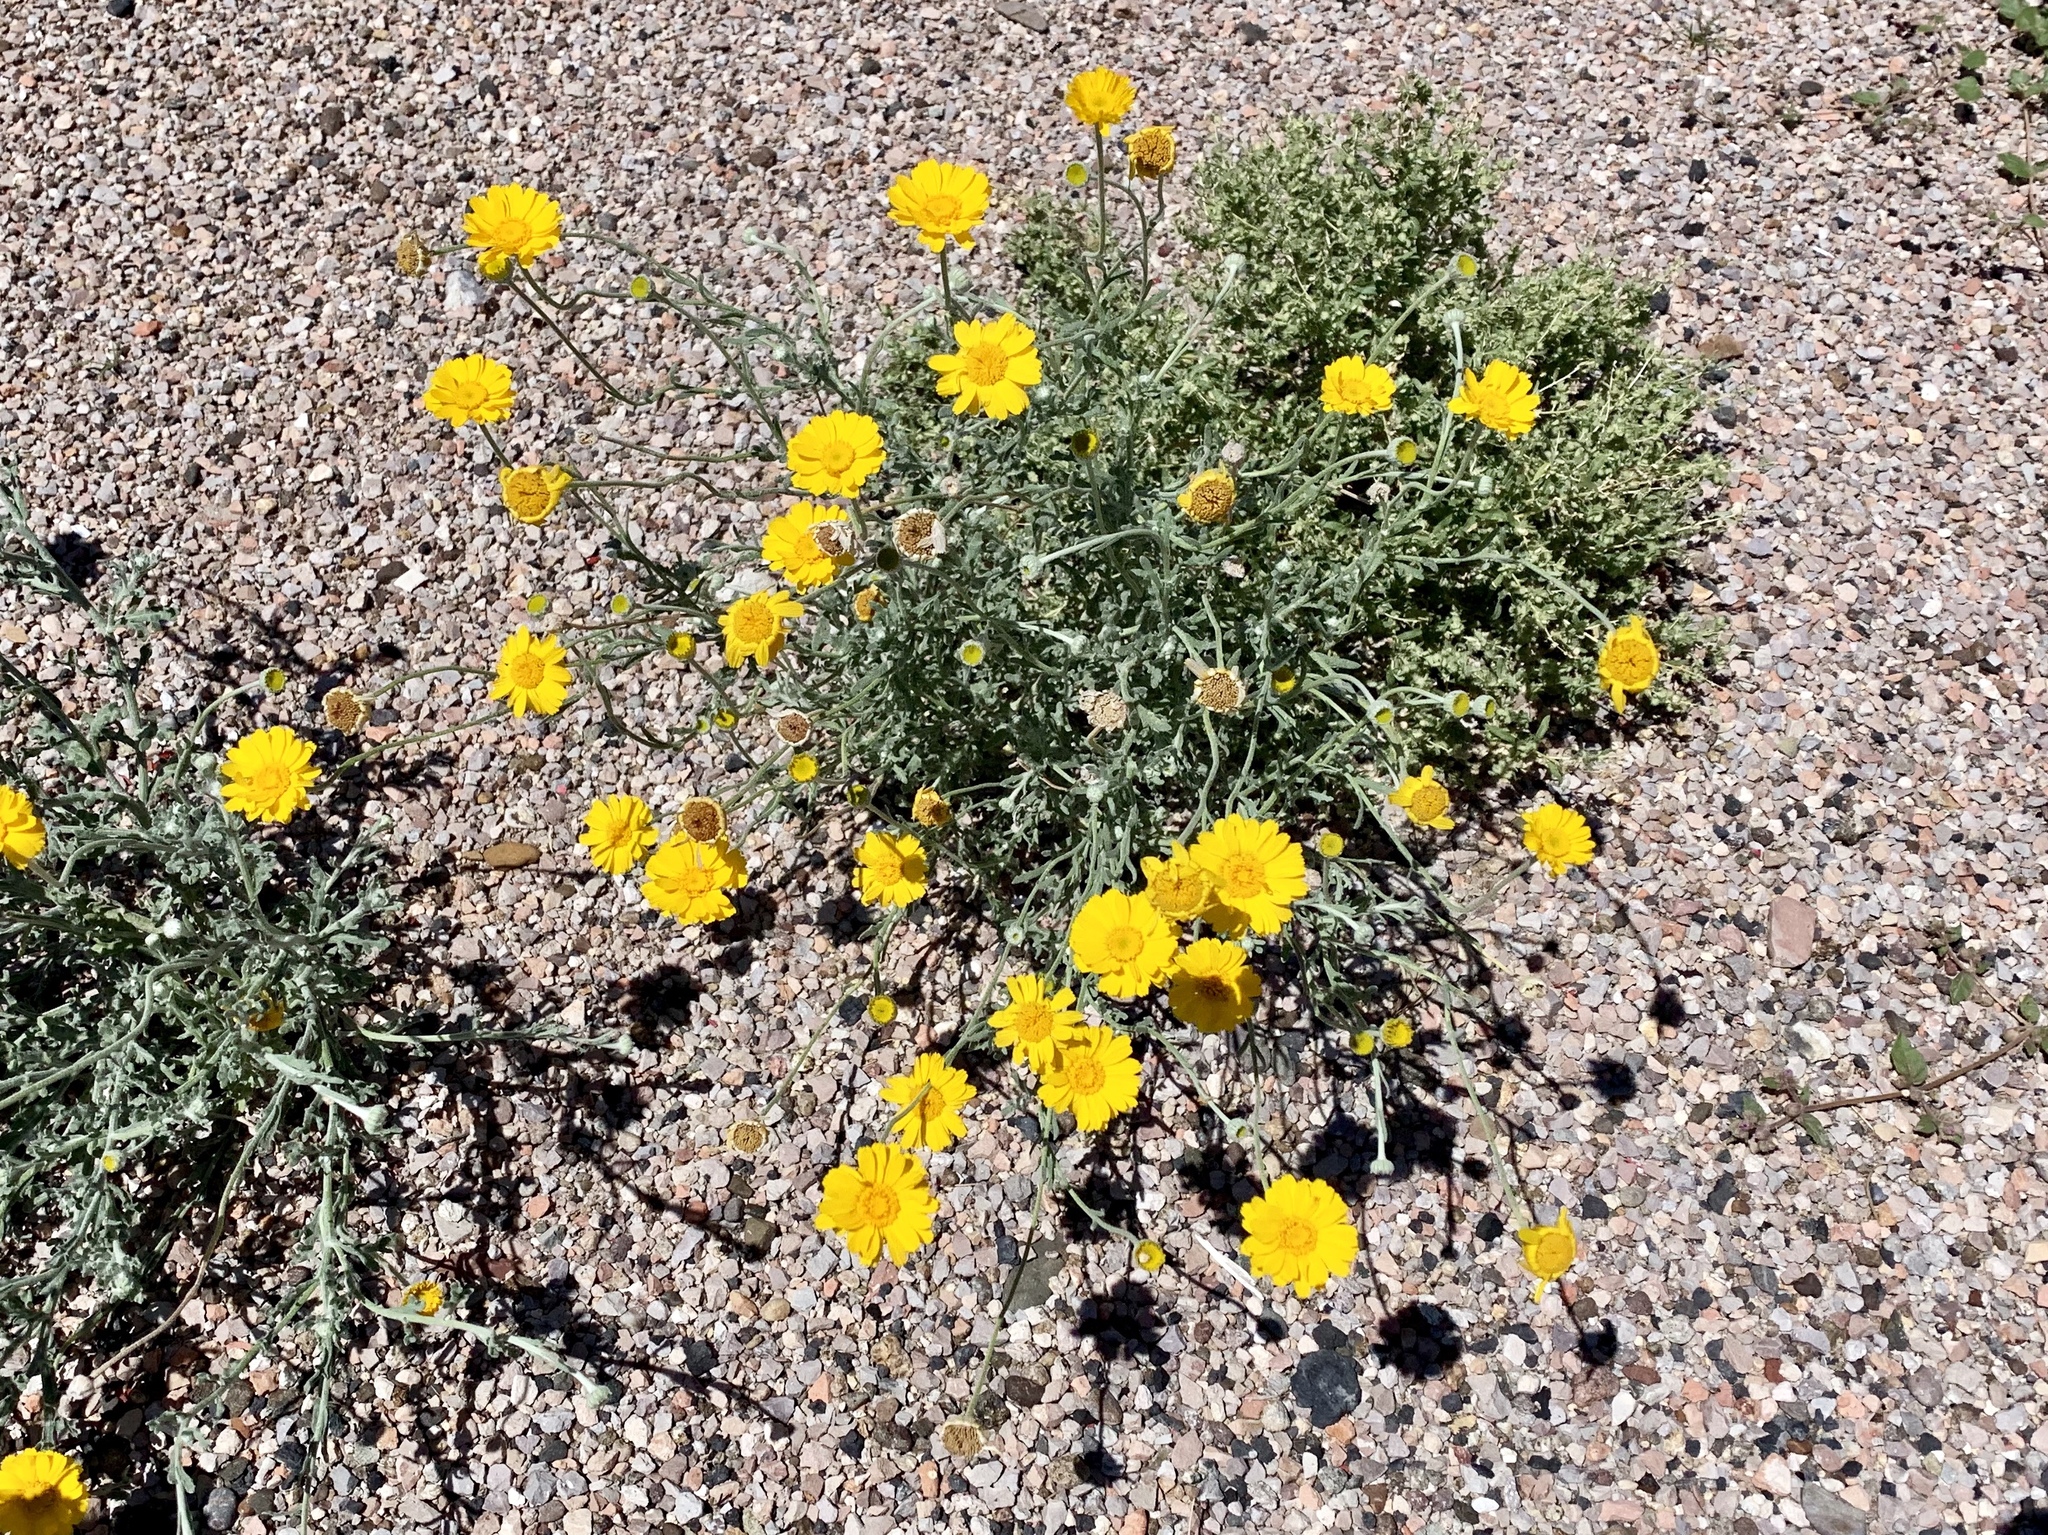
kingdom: Plantae
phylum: Tracheophyta
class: Magnoliopsida
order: Asterales
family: Asteraceae
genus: Baileya
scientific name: Baileya multiradiata
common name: Desert-marigold
